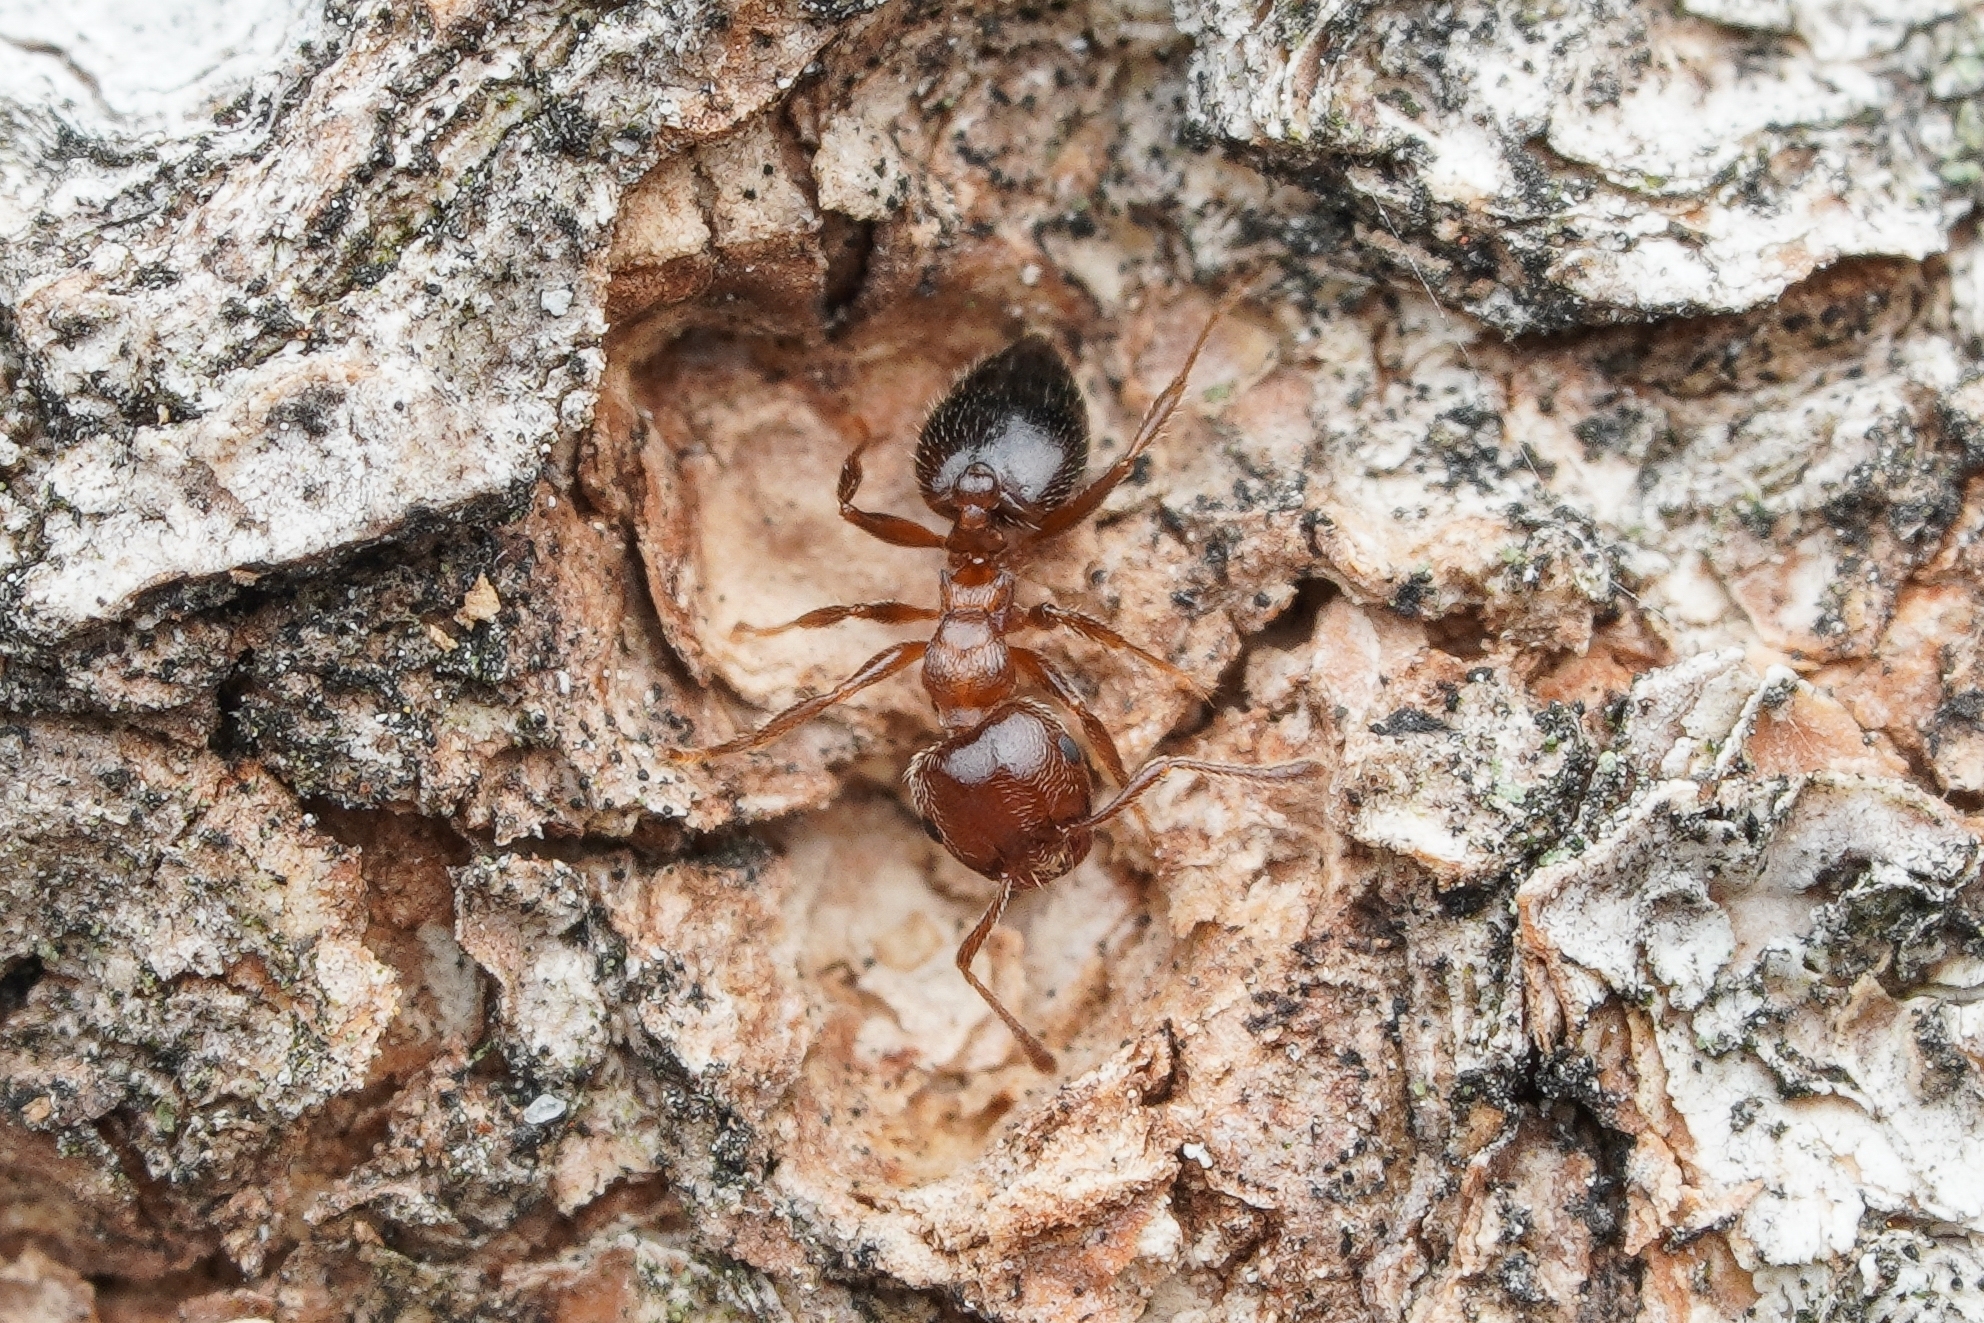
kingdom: Animalia
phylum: Arthropoda
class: Insecta
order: Hymenoptera
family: Formicidae
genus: Crematogaster
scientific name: Crematogaster matsumurai
